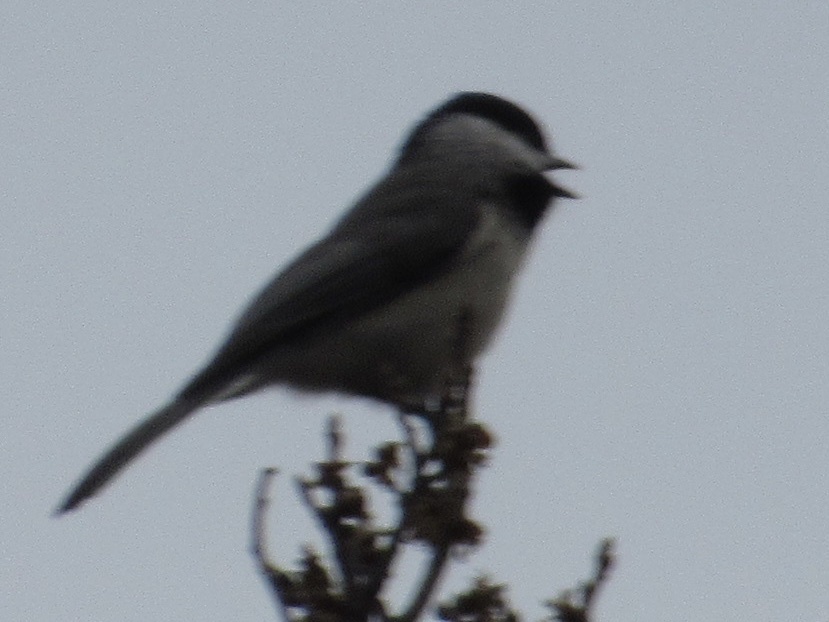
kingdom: Animalia
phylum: Chordata
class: Aves
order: Passeriformes
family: Paridae
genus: Poecile
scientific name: Poecile carolinensis
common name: Carolina chickadee
